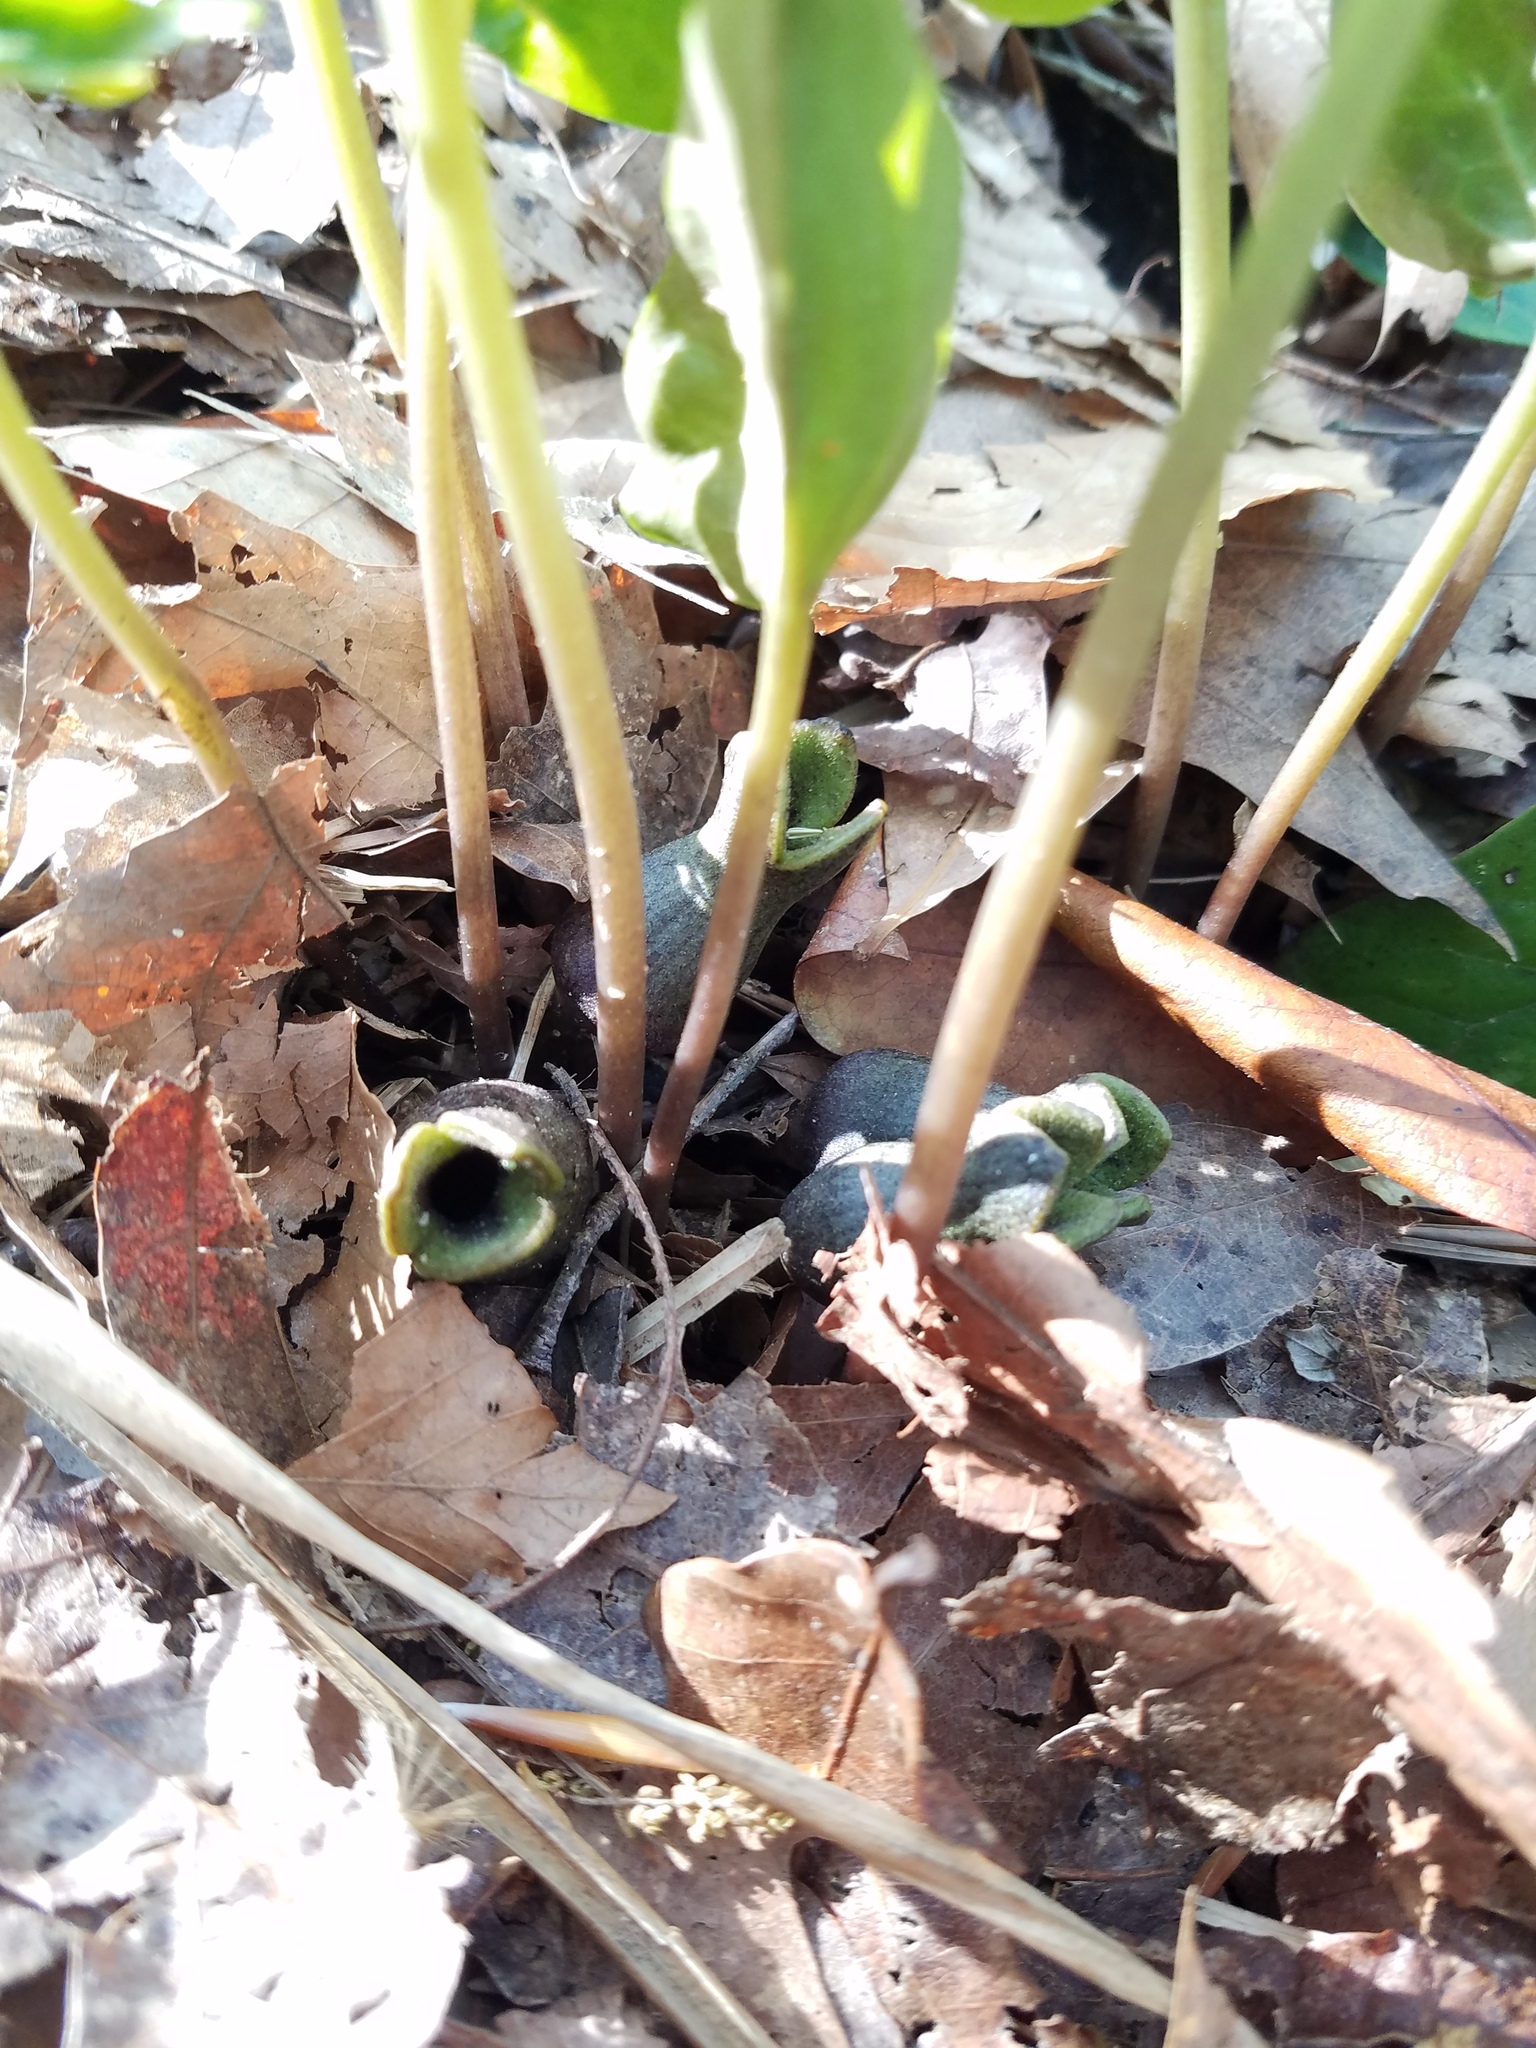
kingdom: Plantae
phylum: Tracheophyta
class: Magnoliopsida
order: Piperales
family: Aristolochiaceae
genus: Hexastylis
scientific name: Hexastylis arifolia
